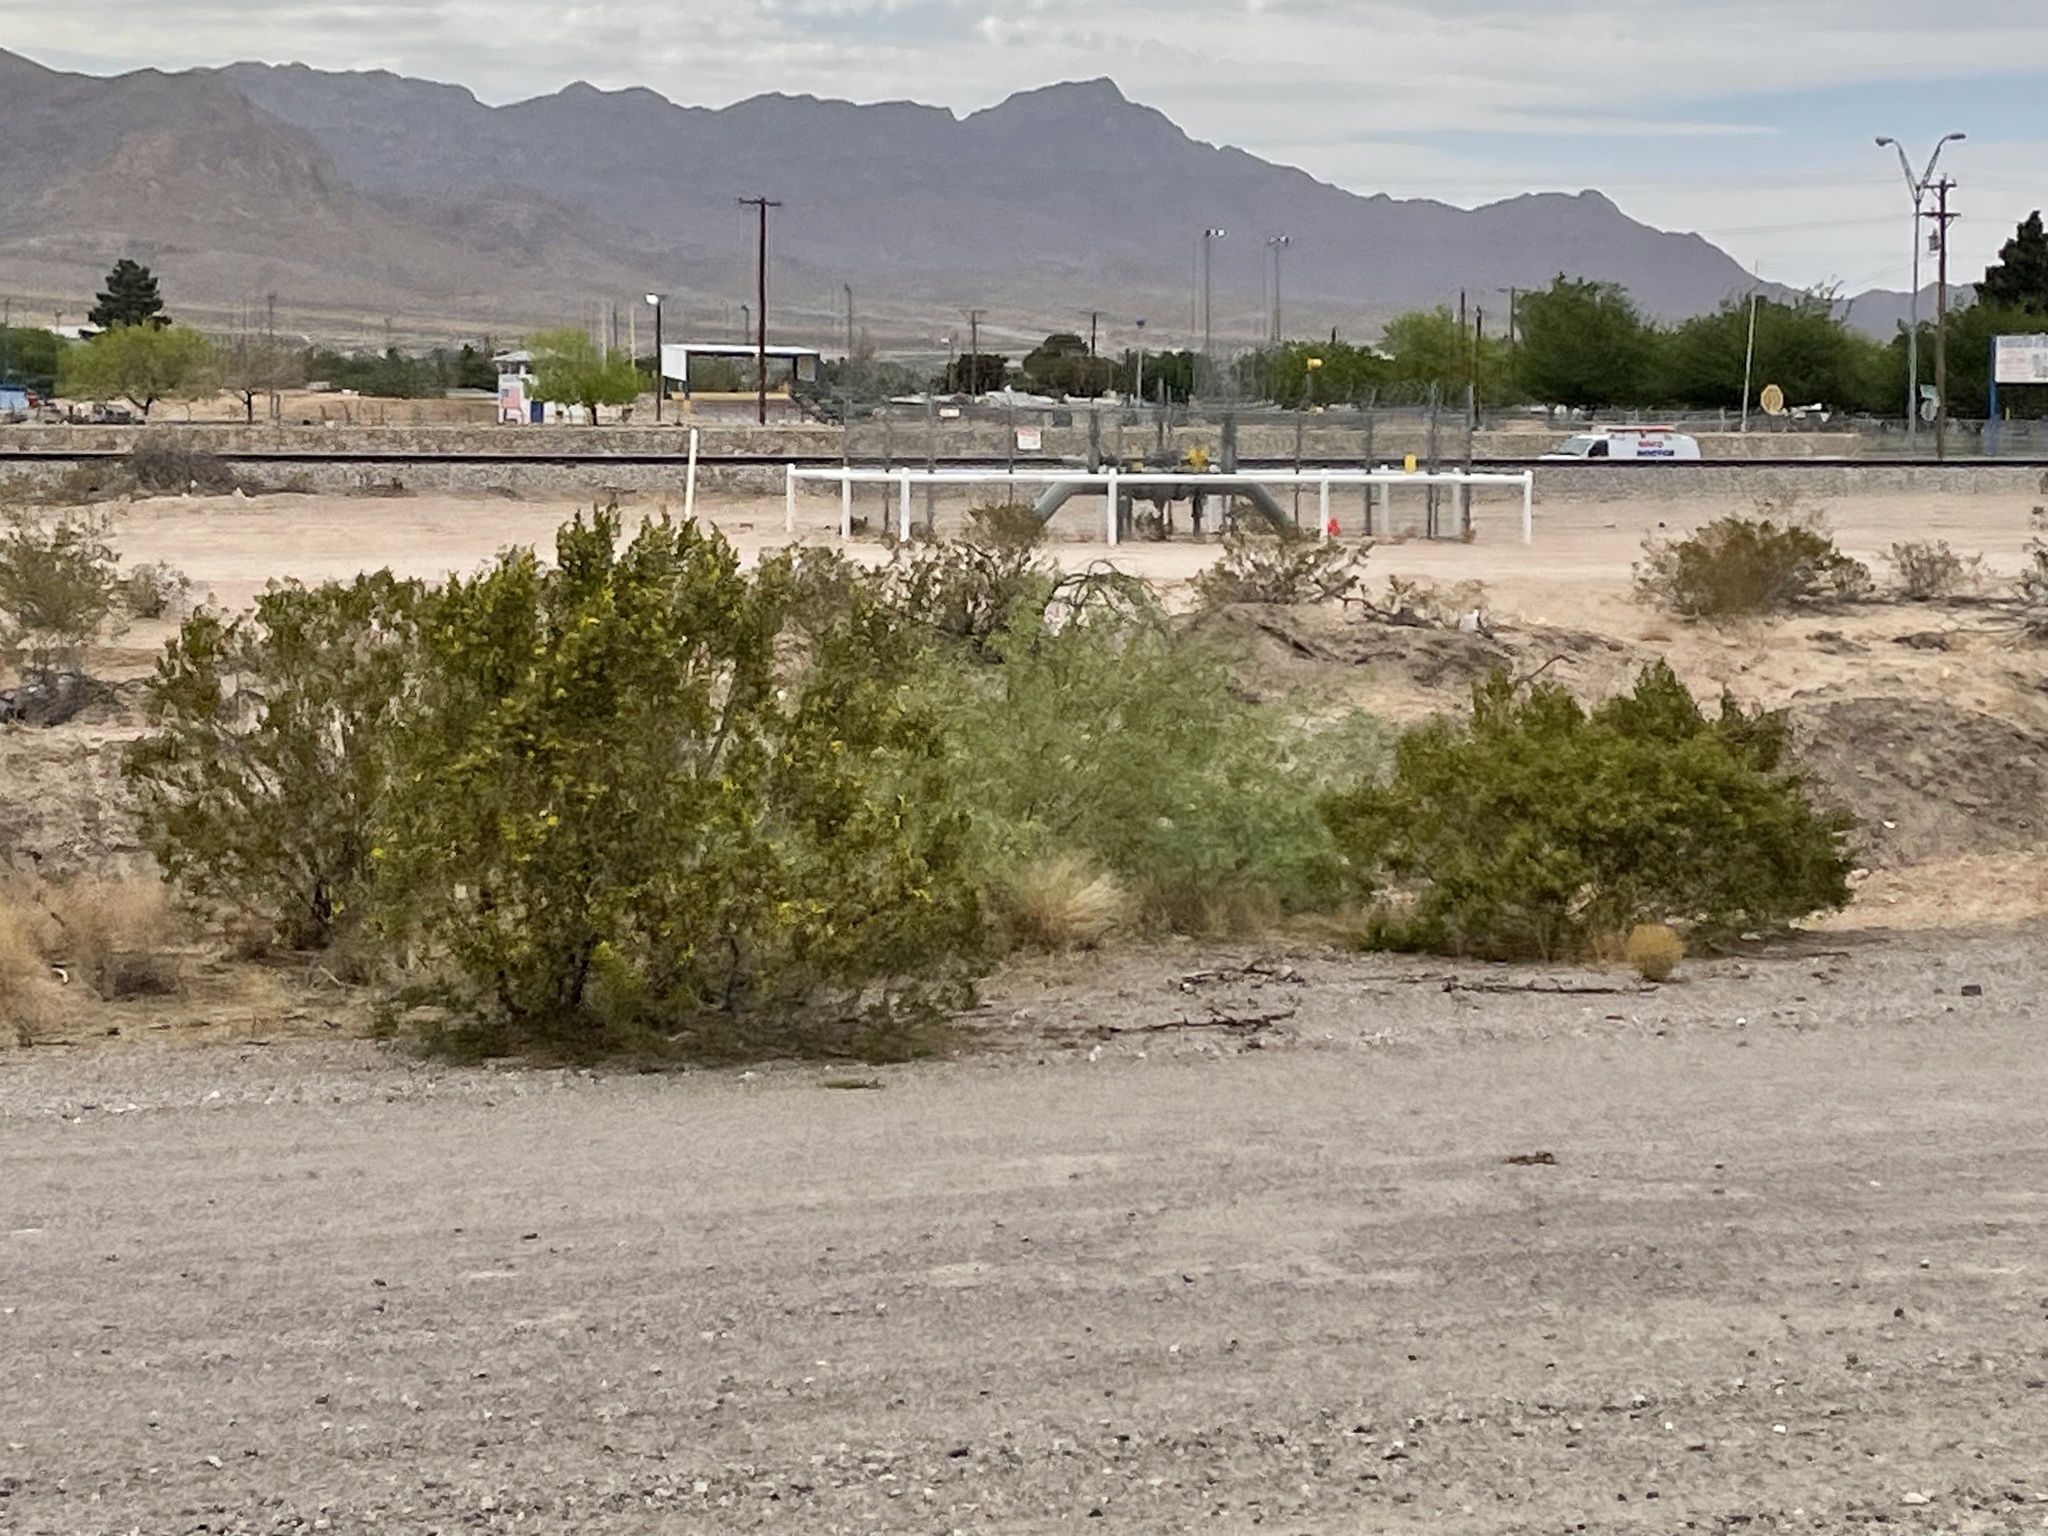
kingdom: Plantae
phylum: Tracheophyta
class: Magnoliopsida
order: Zygophyllales
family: Zygophyllaceae
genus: Larrea
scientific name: Larrea tridentata
